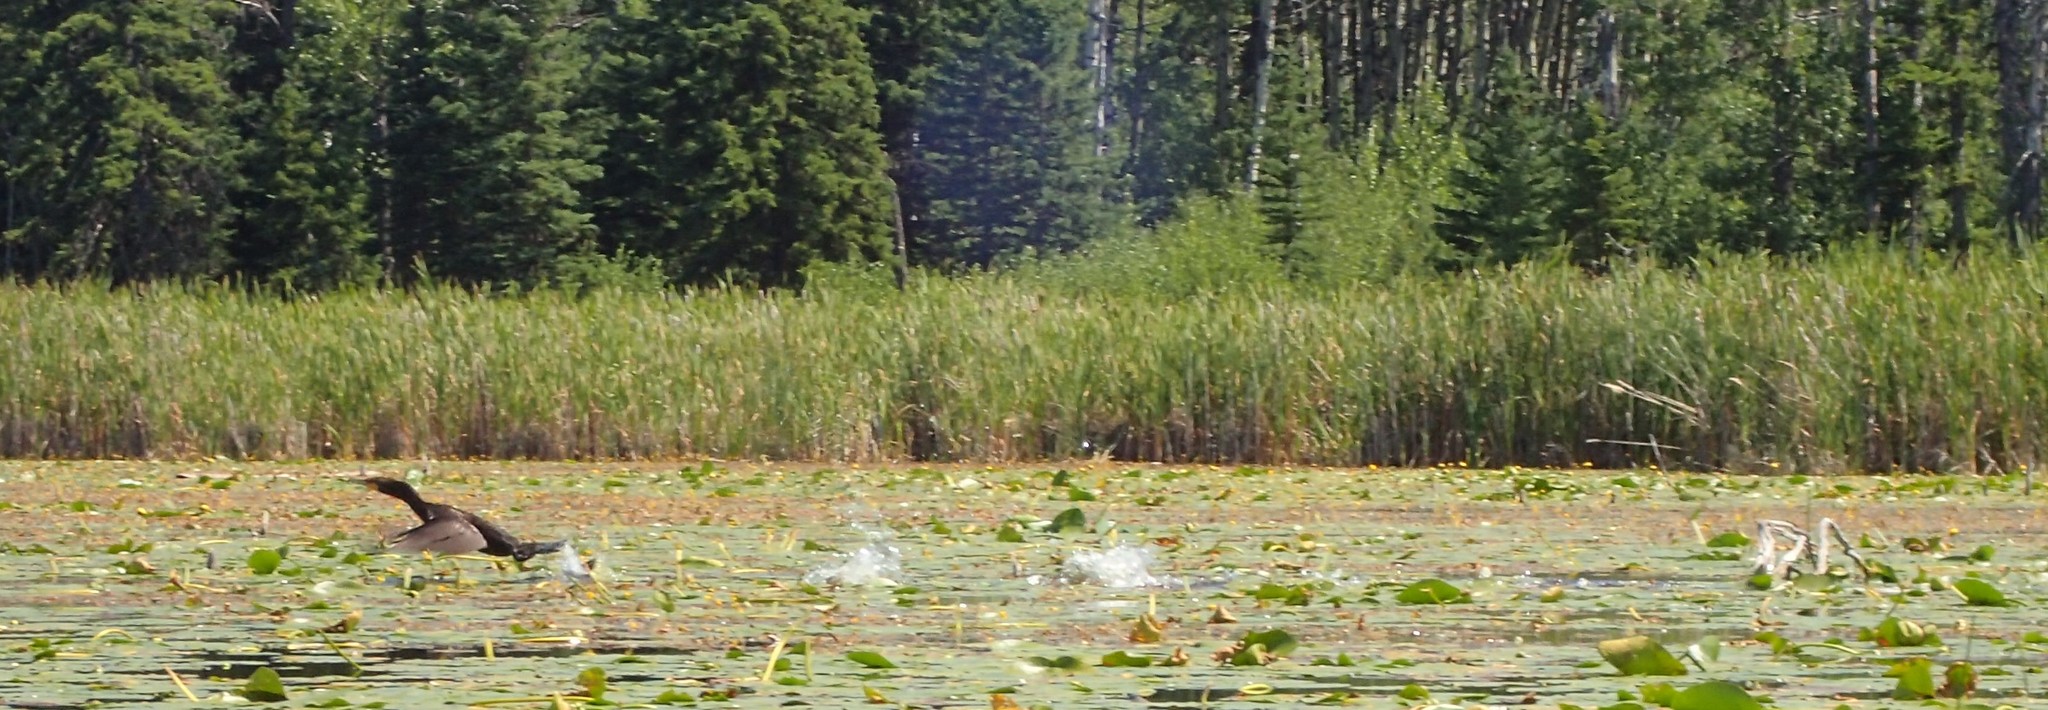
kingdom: Animalia
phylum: Chordata
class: Aves
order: Suliformes
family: Phalacrocoracidae
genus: Phalacrocorax
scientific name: Phalacrocorax auritus
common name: Double-crested cormorant
